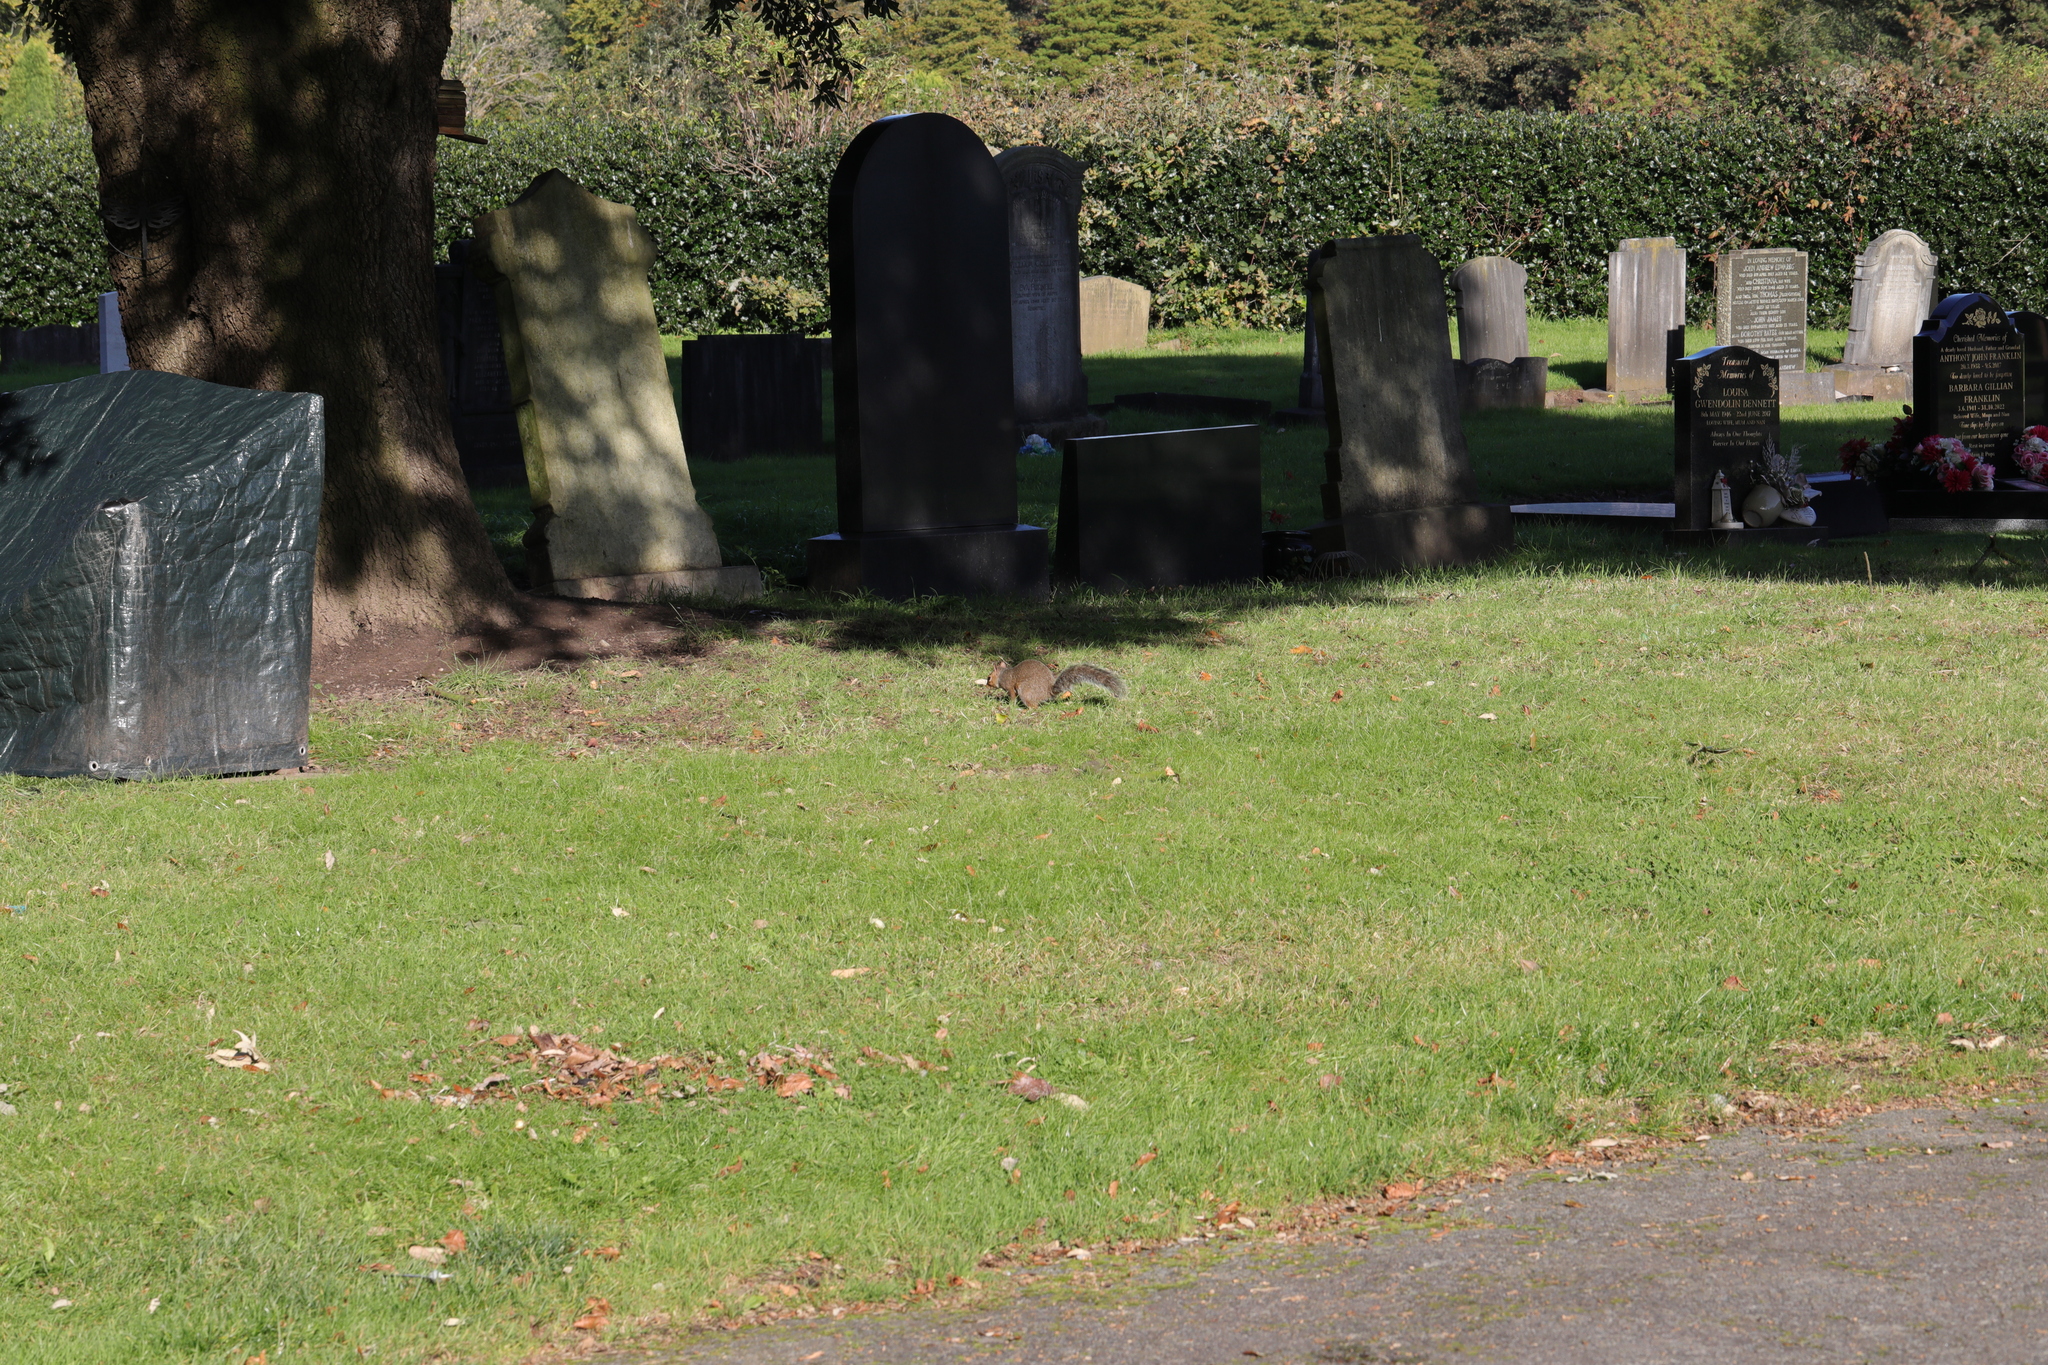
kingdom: Animalia
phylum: Chordata
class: Mammalia
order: Rodentia
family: Sciuridae
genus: Sciurus
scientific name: Sciurus carolinensis
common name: Eastern gray squirrel
